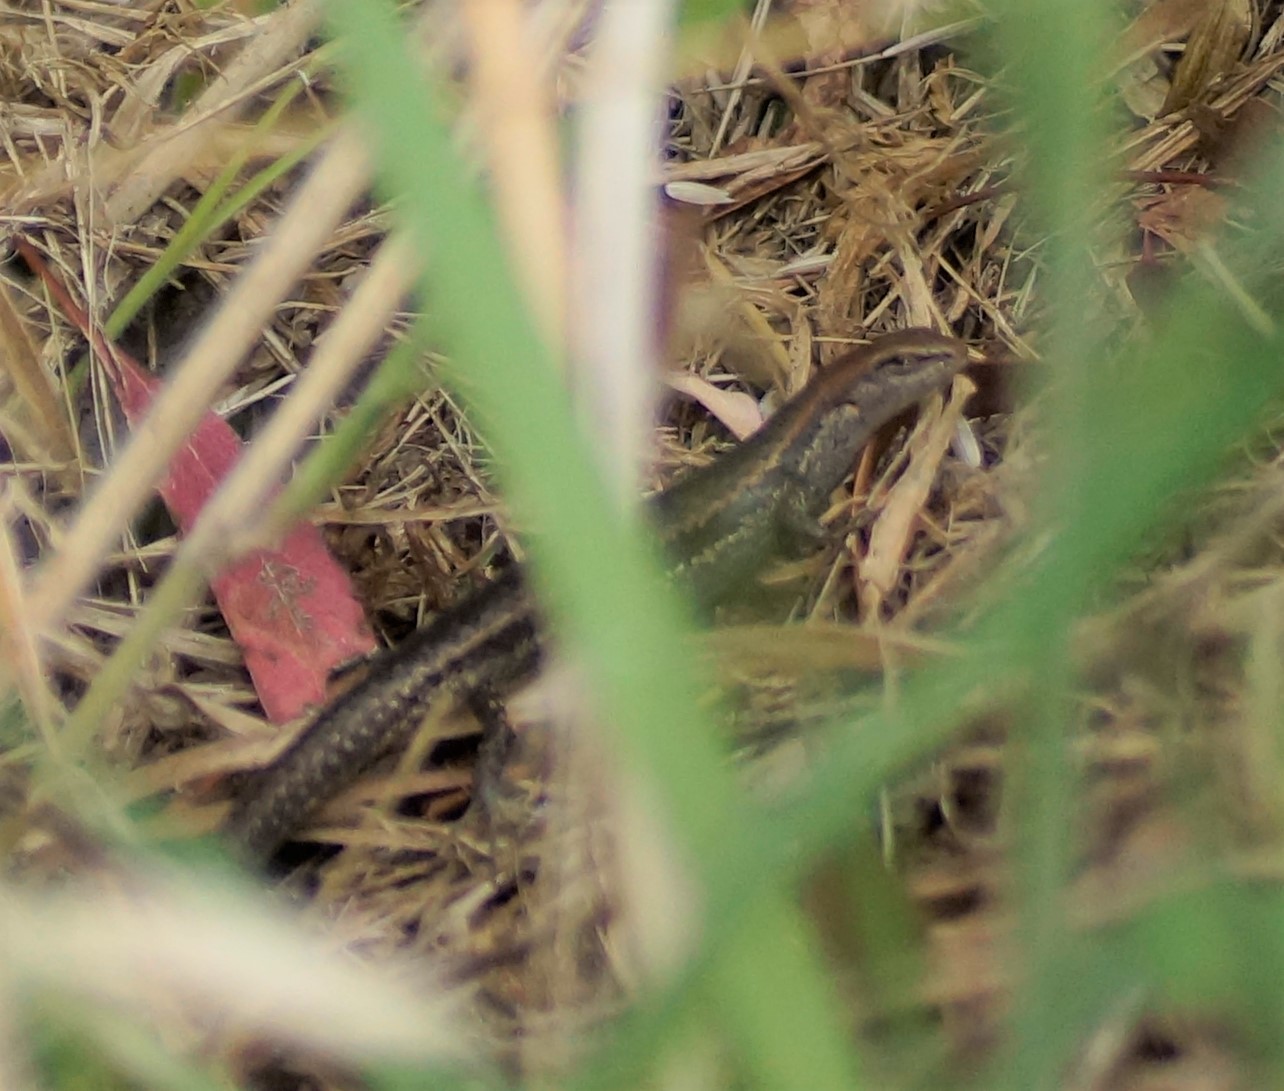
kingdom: Animalia
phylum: Chordata
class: Squamata
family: Scincidae
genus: Lampropholis
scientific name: Lampropholis guichenoti
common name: Garden skink
